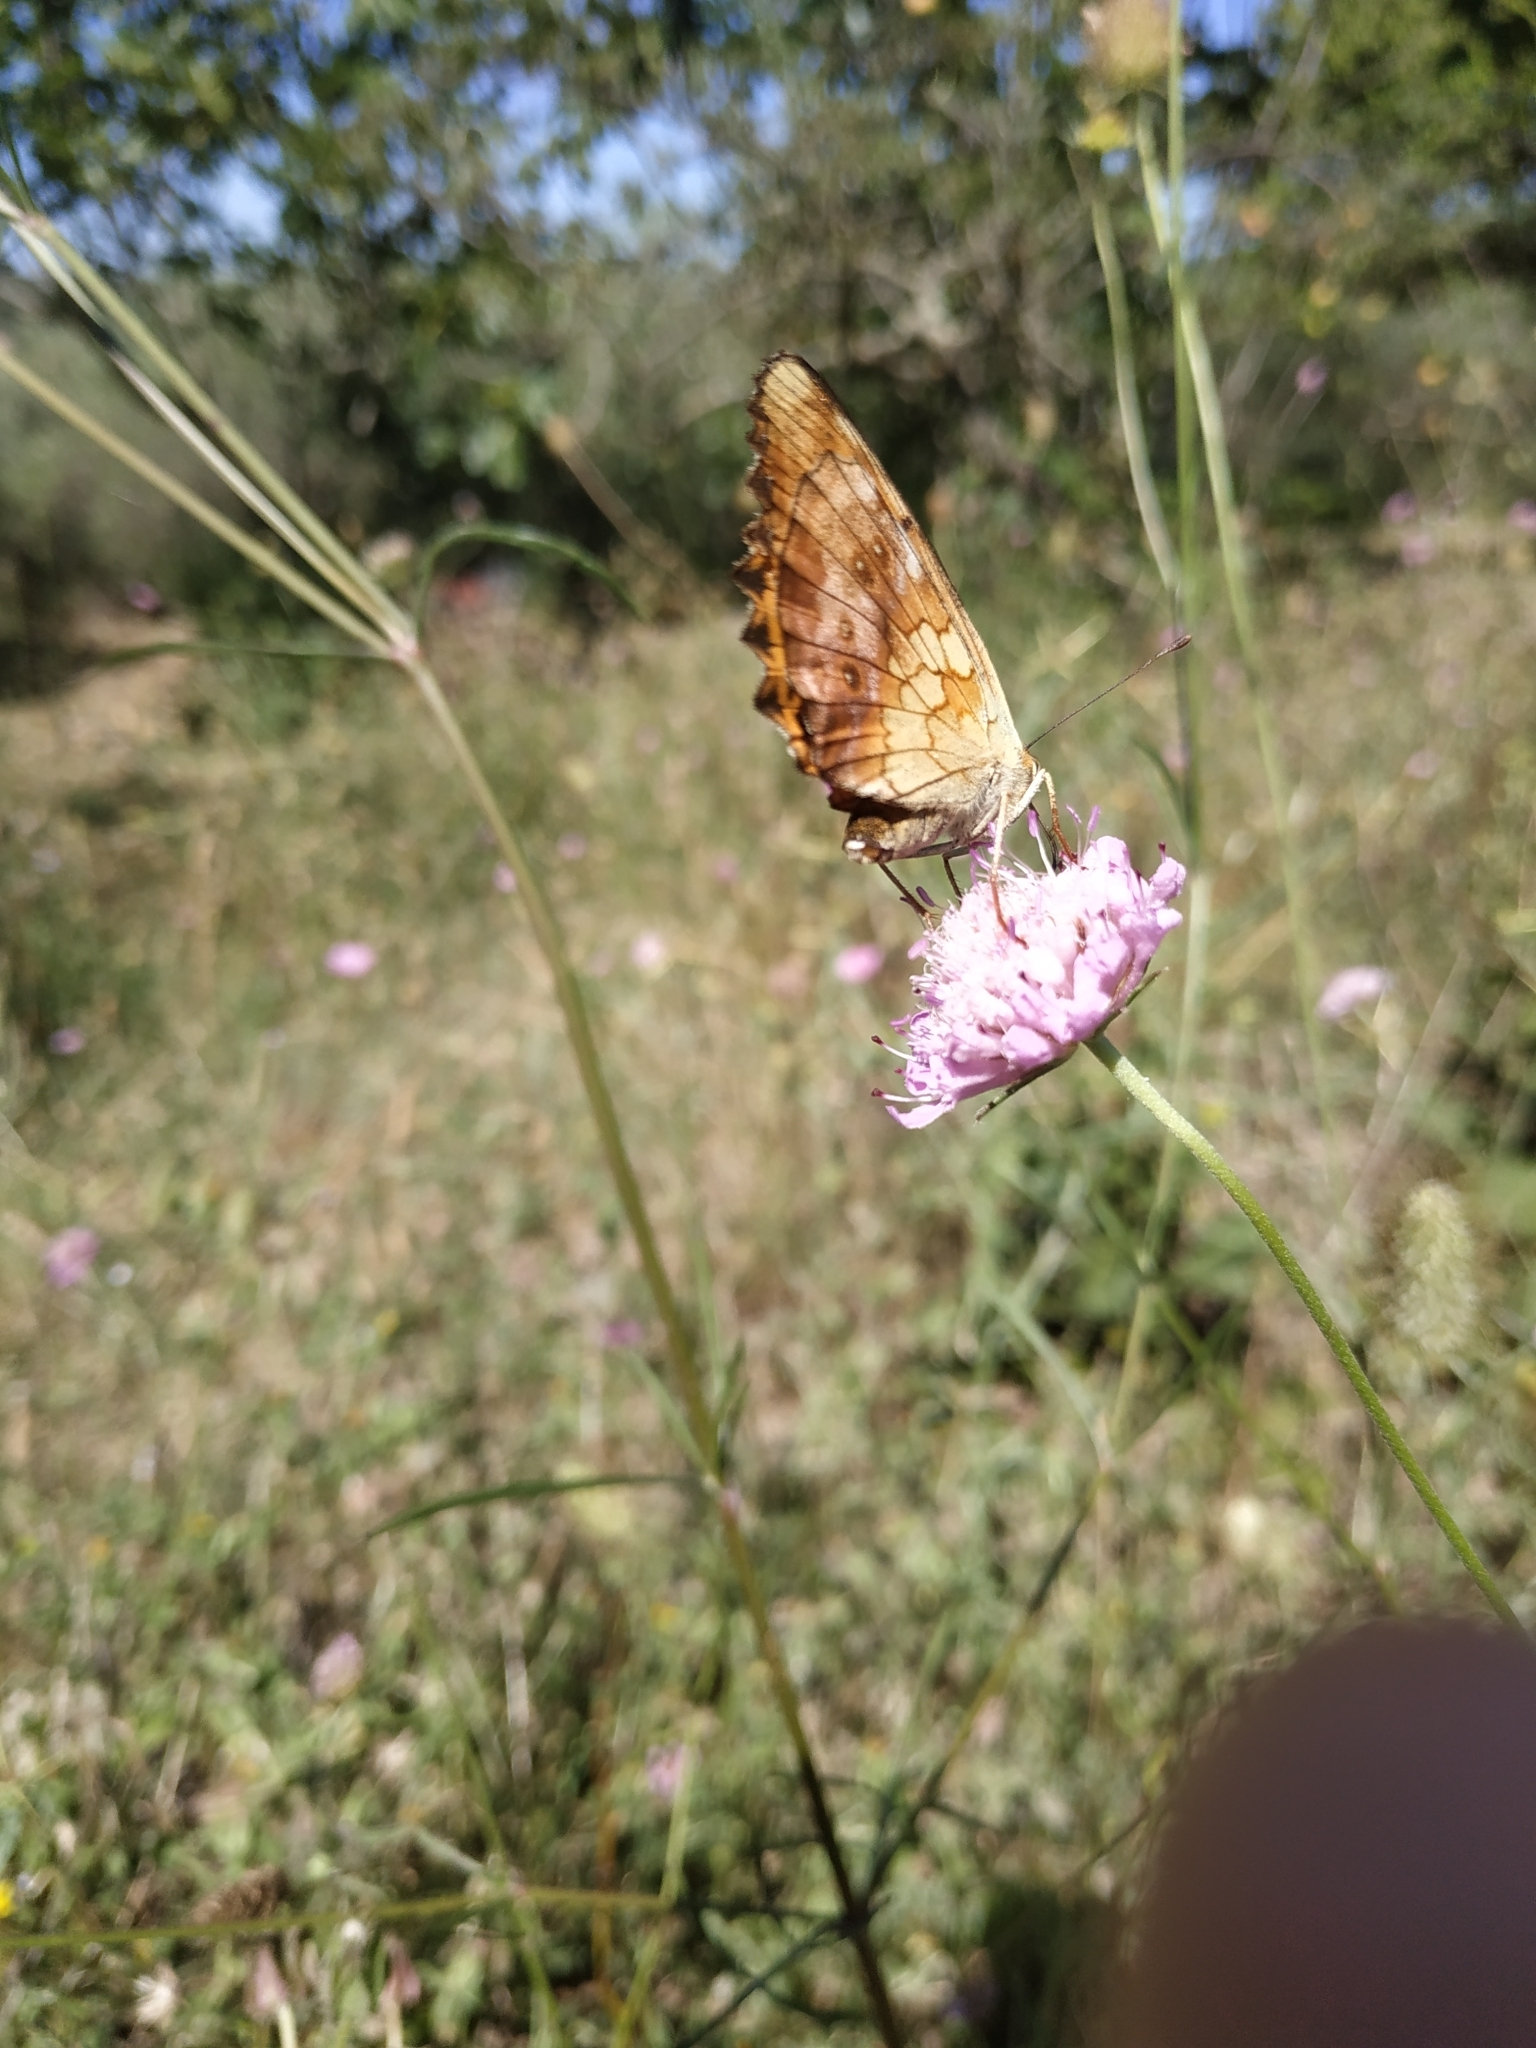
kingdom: Animalia
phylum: Arthropoda
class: Insecta
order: Lepidoptera
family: Nymphalidae
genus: Brenthis
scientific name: Brenthis daphne
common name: Marbled fritillary
